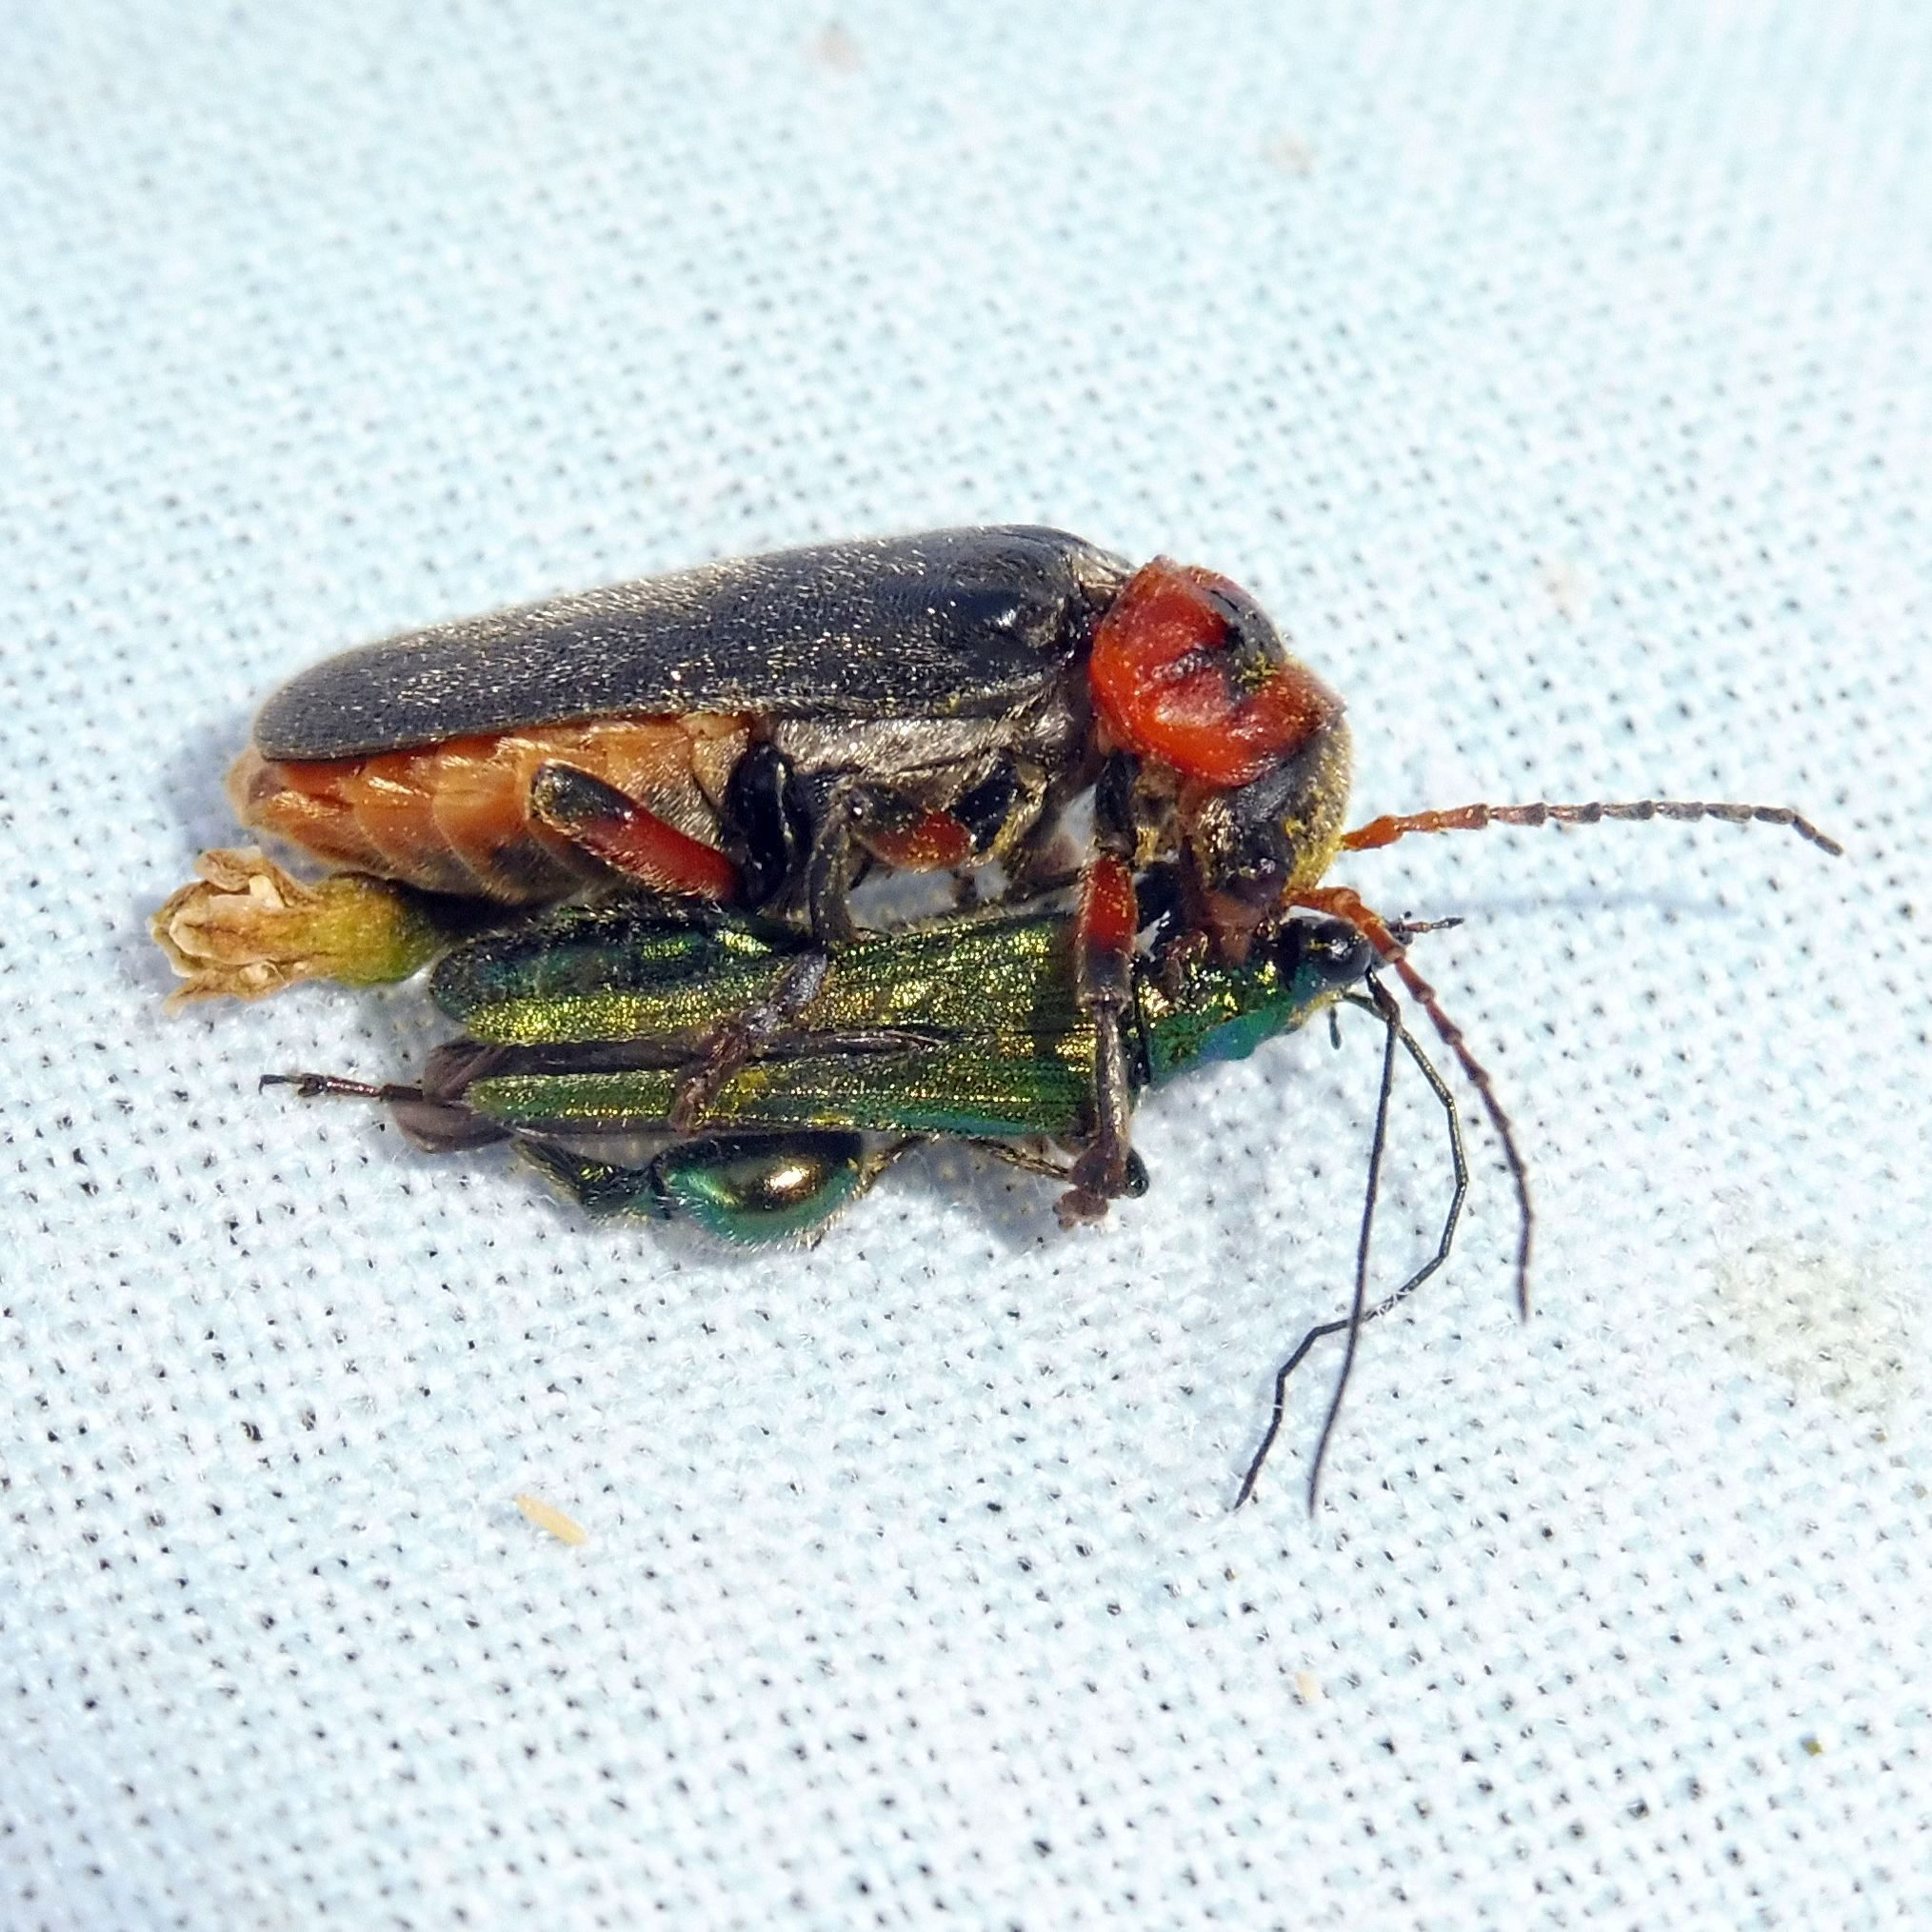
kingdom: Animalia
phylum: Arthropoda
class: Insecta
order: Coleoptera
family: Cantharidae
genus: Cantharis
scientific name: Cantharis rustica
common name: Soldier beetle
